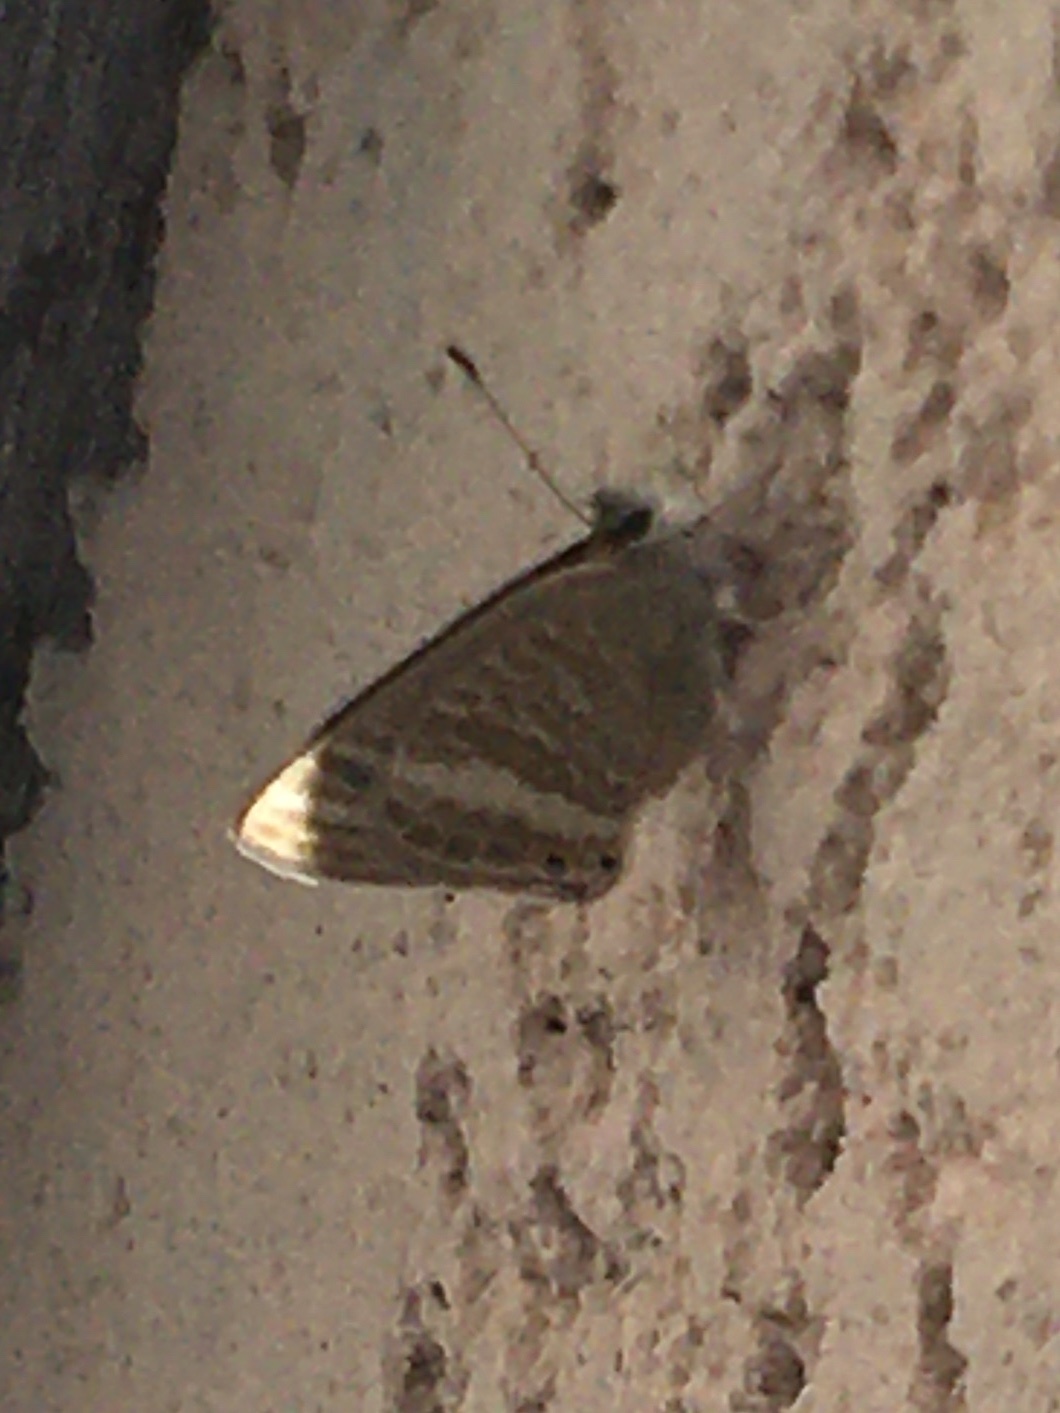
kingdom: Animalia
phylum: Arthropoda
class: Insecta
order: Lepidoptera
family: Lycaenidae
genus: Lampides
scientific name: Lampides boeticus
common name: Long-tailed blue
